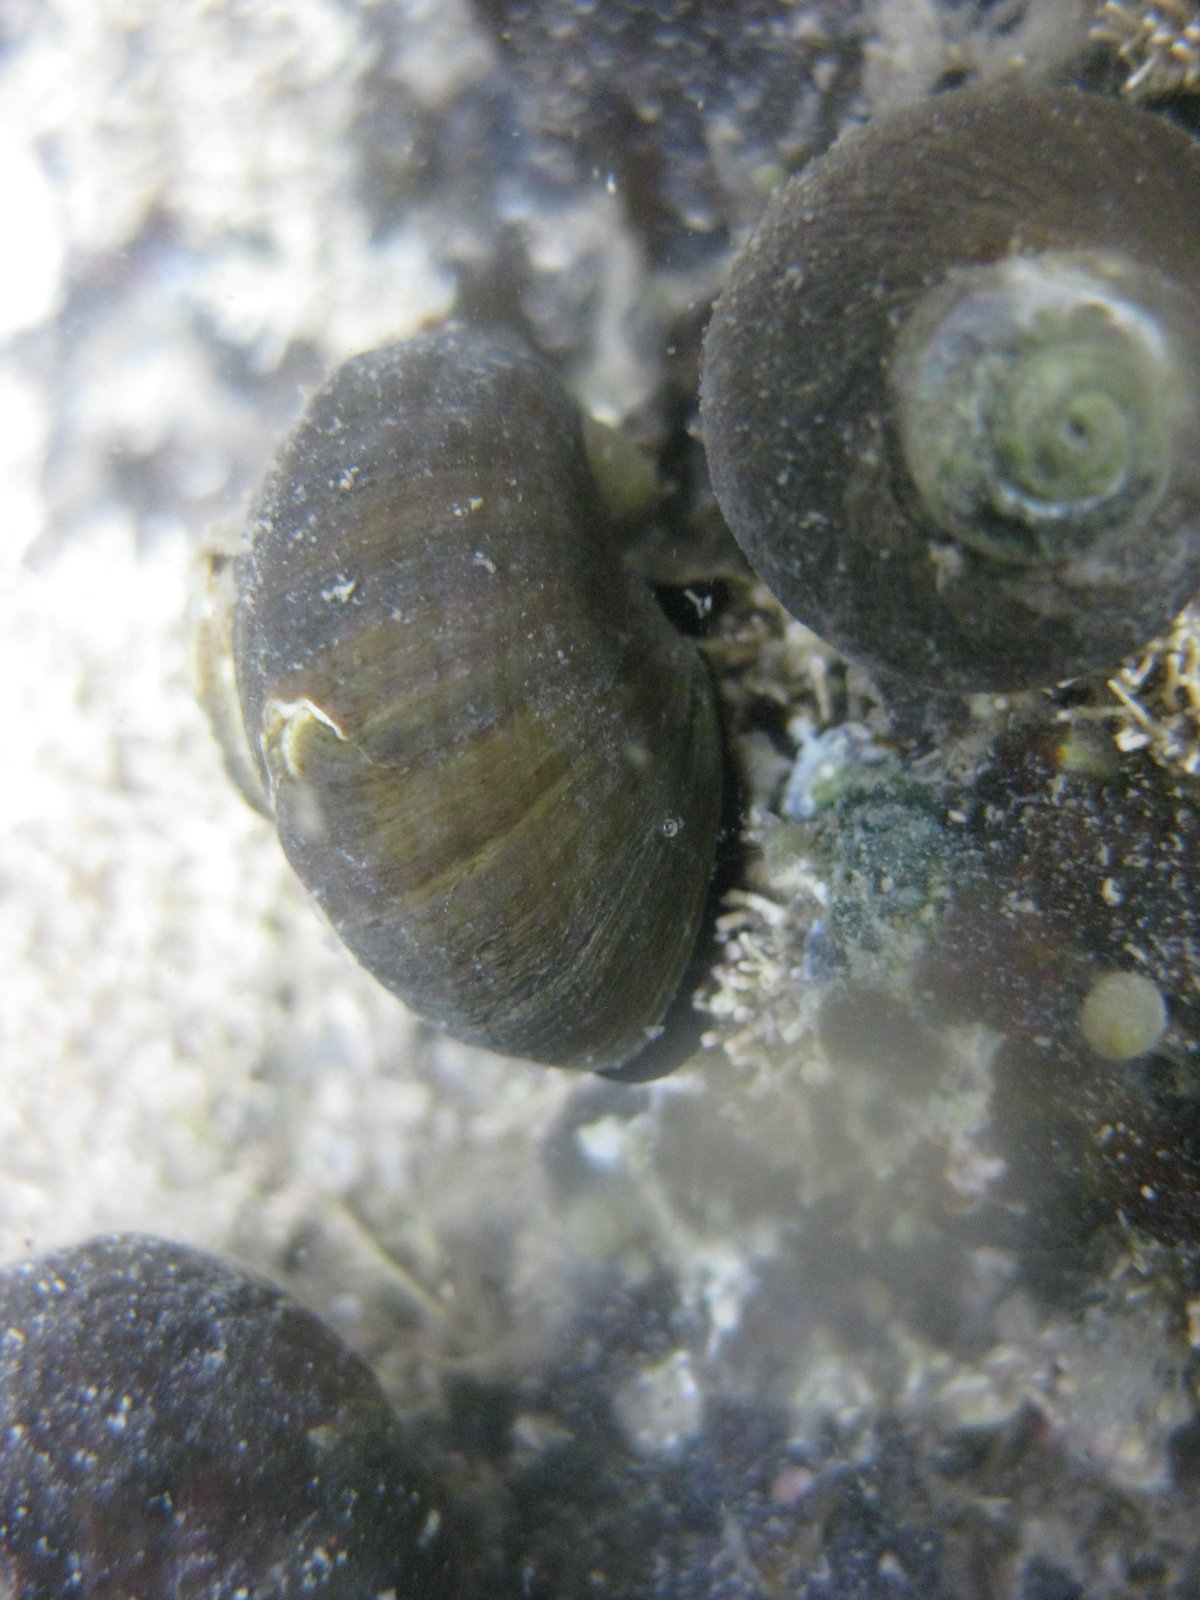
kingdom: Animalia
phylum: Mollusca
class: Gastropoda
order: Trochida
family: Turbinidae
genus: Lunella
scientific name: Lunella smaragda
